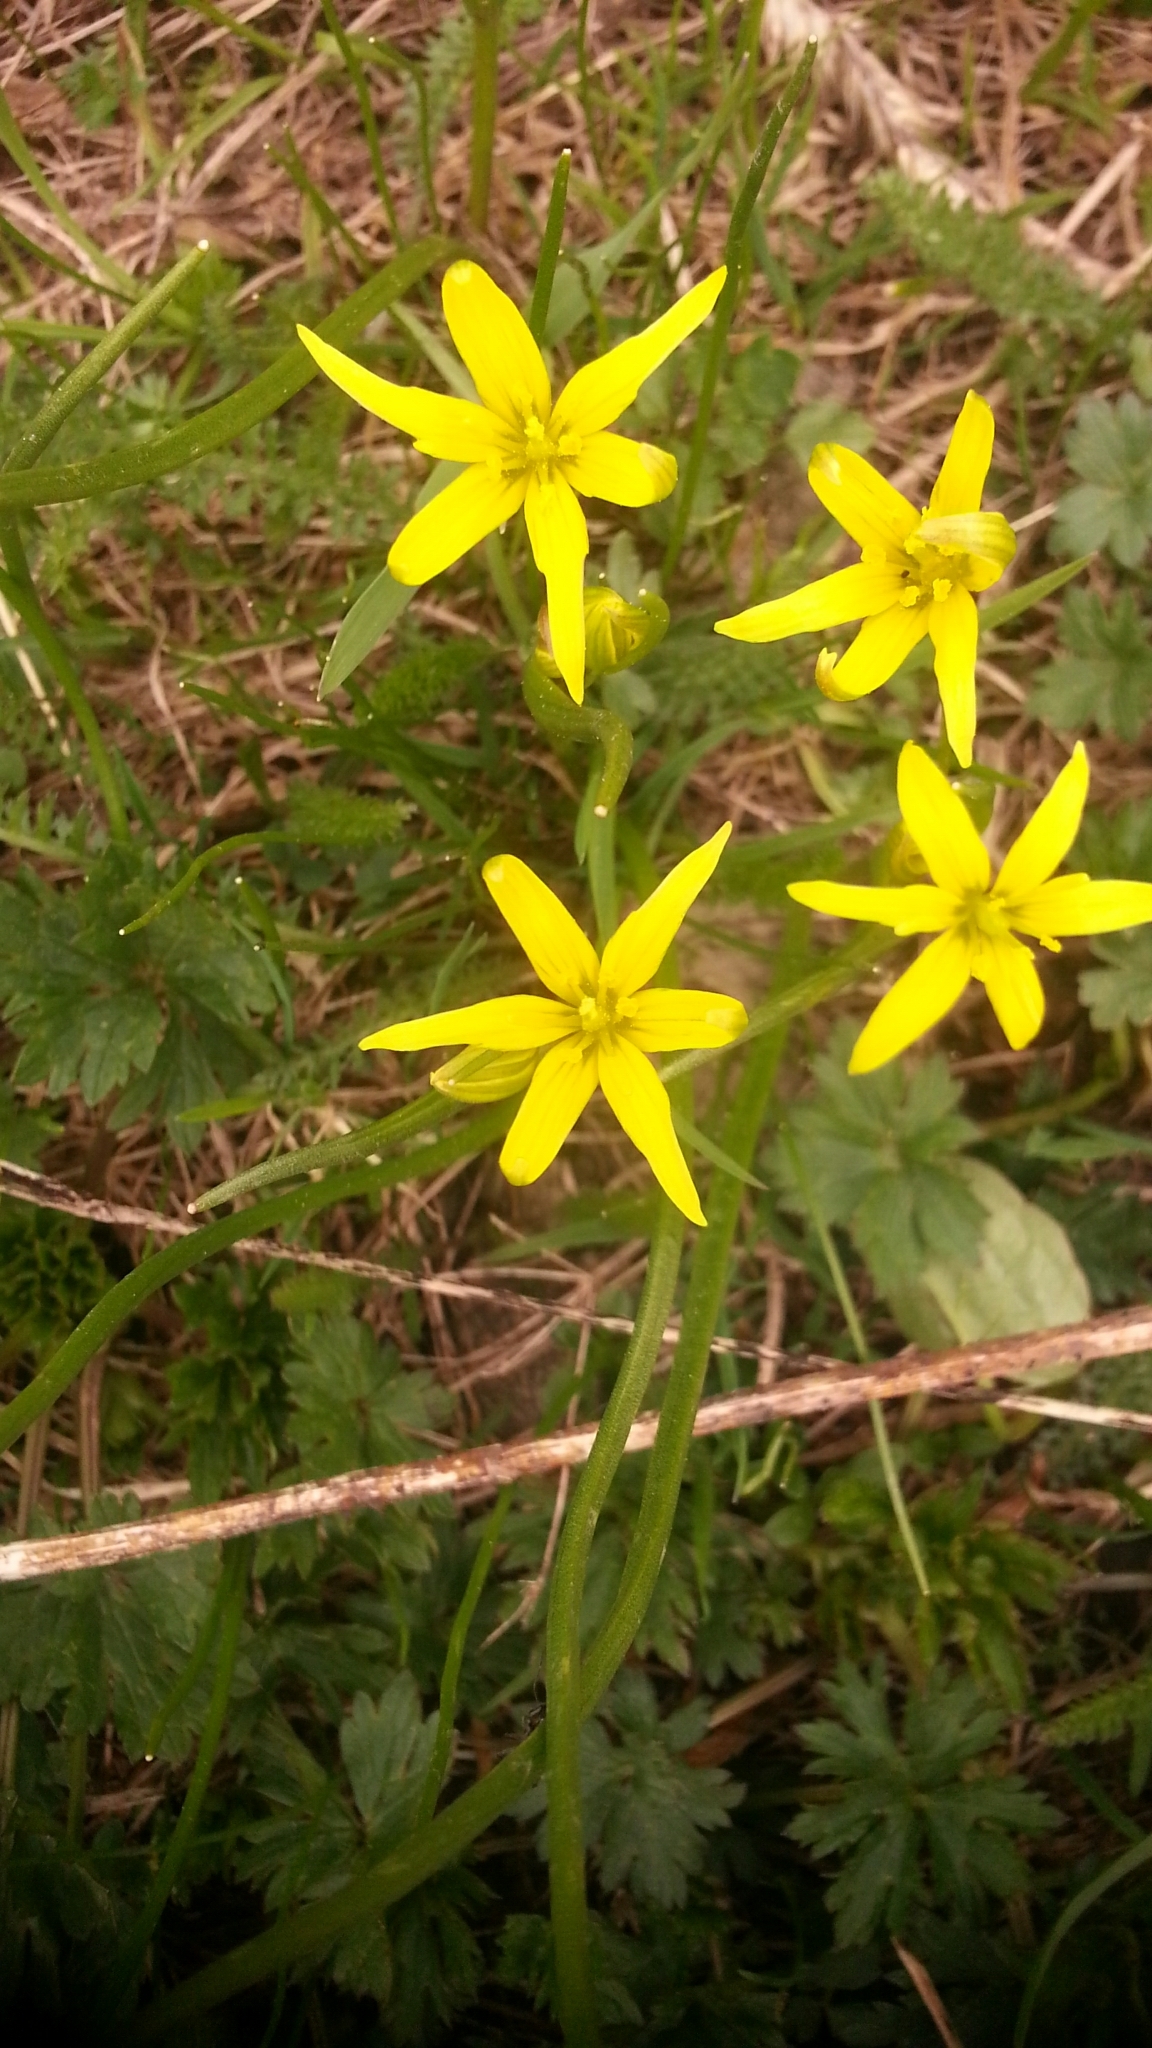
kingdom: Plantae
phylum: Tracheophyta
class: Liliopsida
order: Liliales
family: Liliaceae
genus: Gagea
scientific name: Gagea lutea
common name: Yellow star-of-bethlehem
